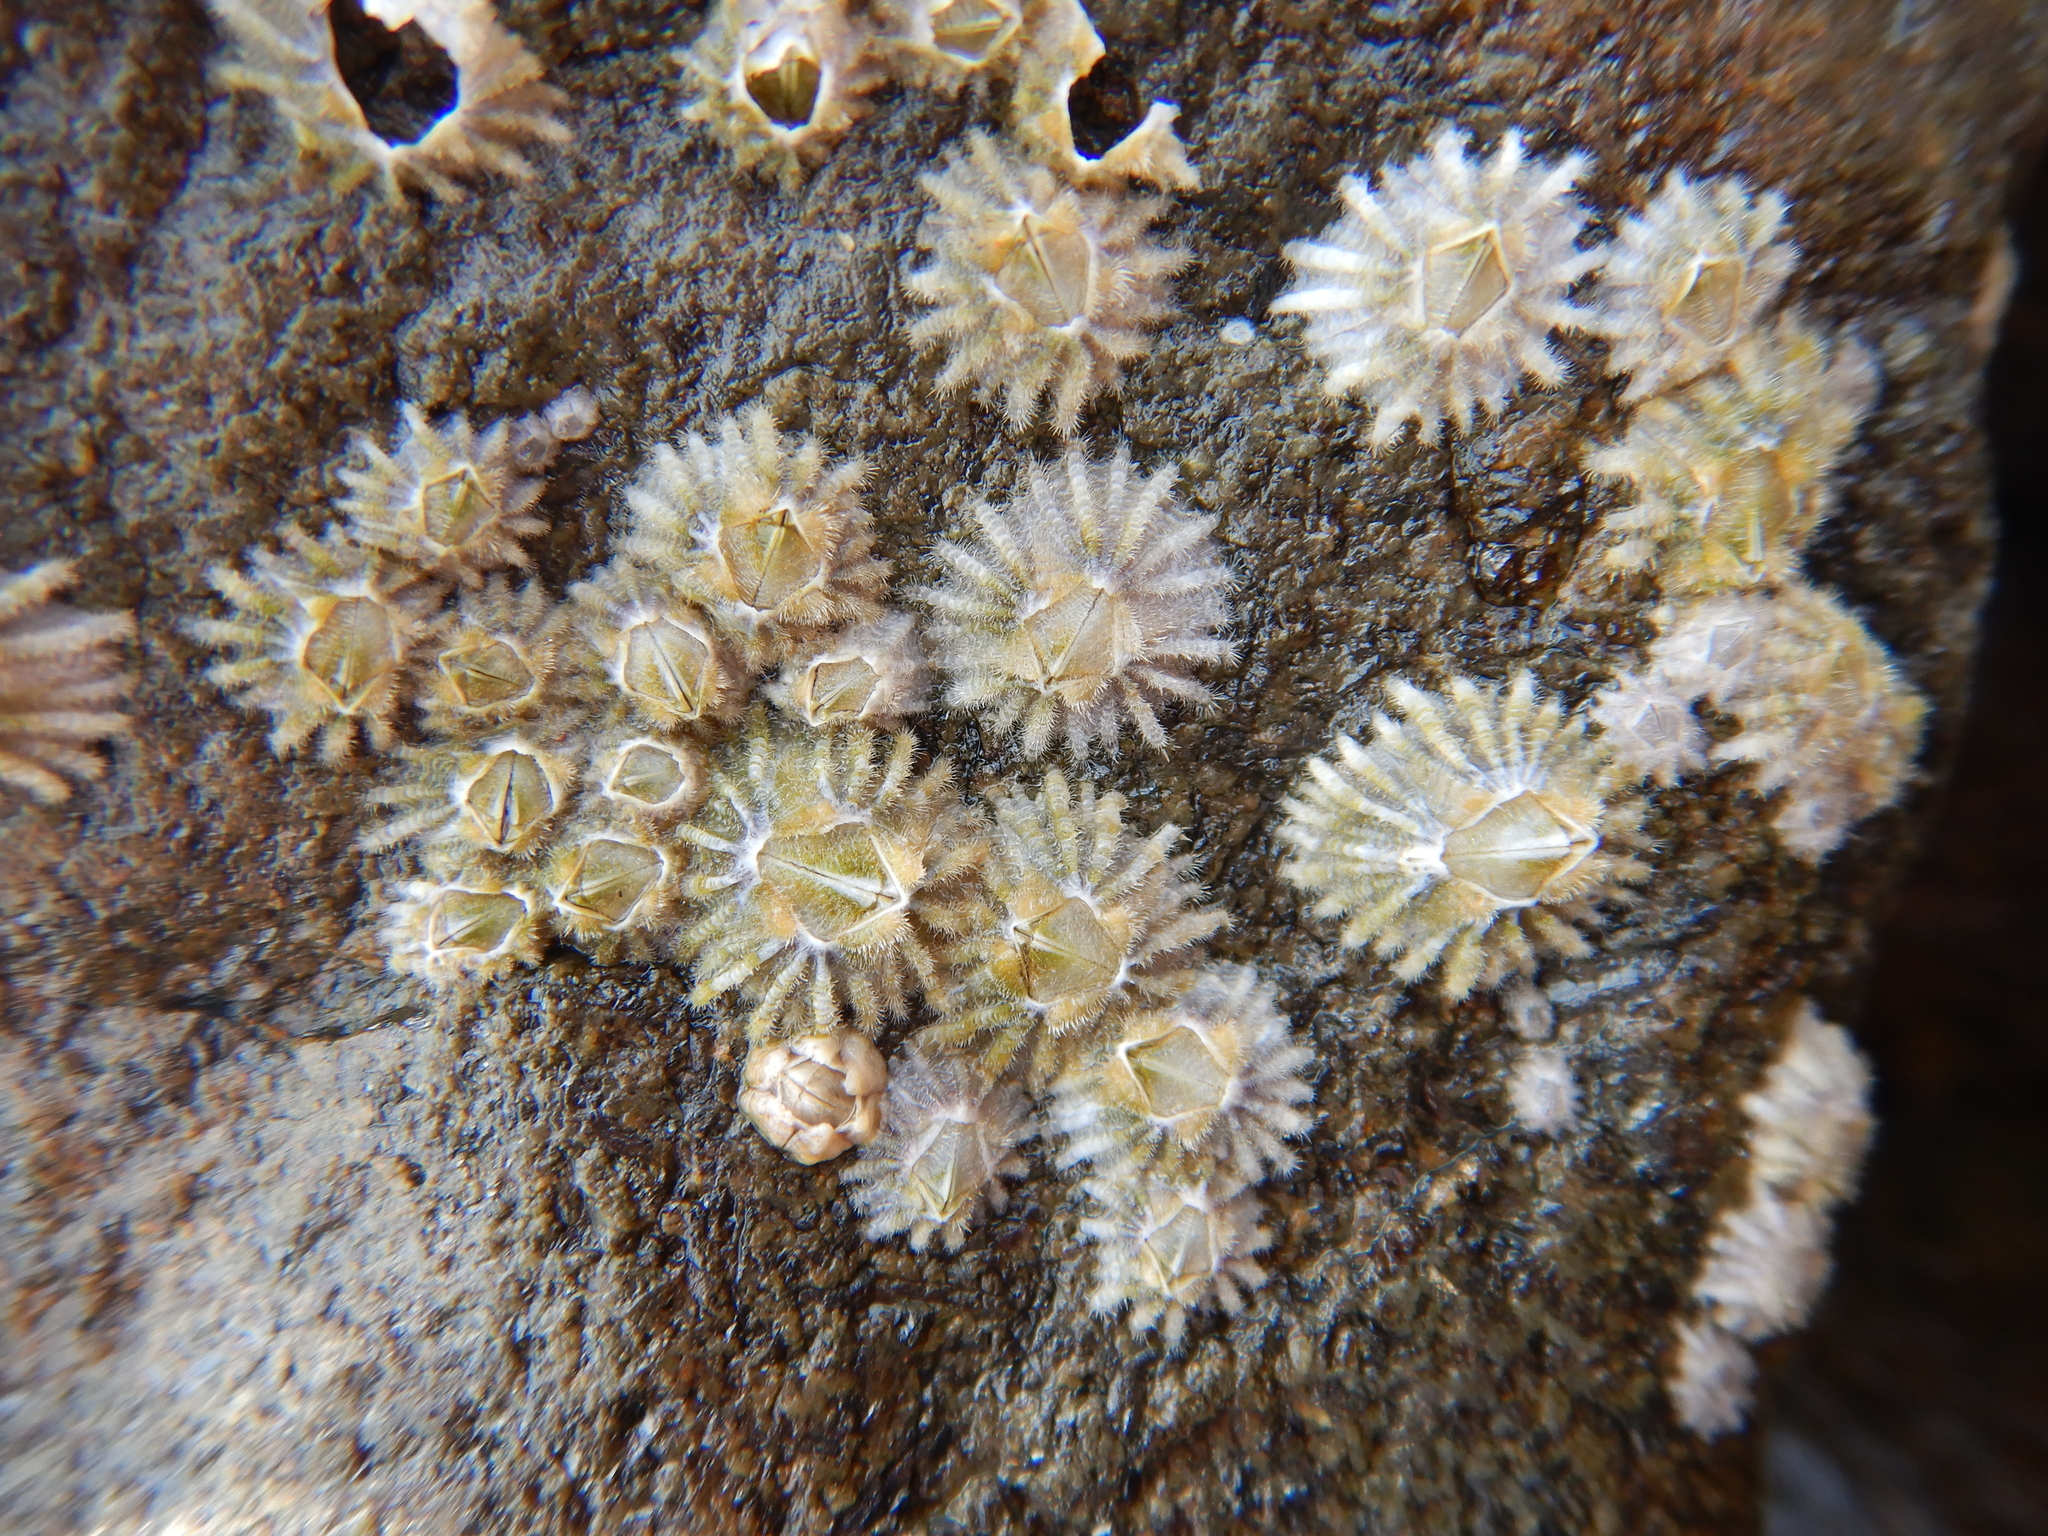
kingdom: Animalia
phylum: Arthropoda
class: Maxillopoda
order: Sessilia
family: Tetraclitidae
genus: Tetraclitella
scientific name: Tetraclitella purpurascens
